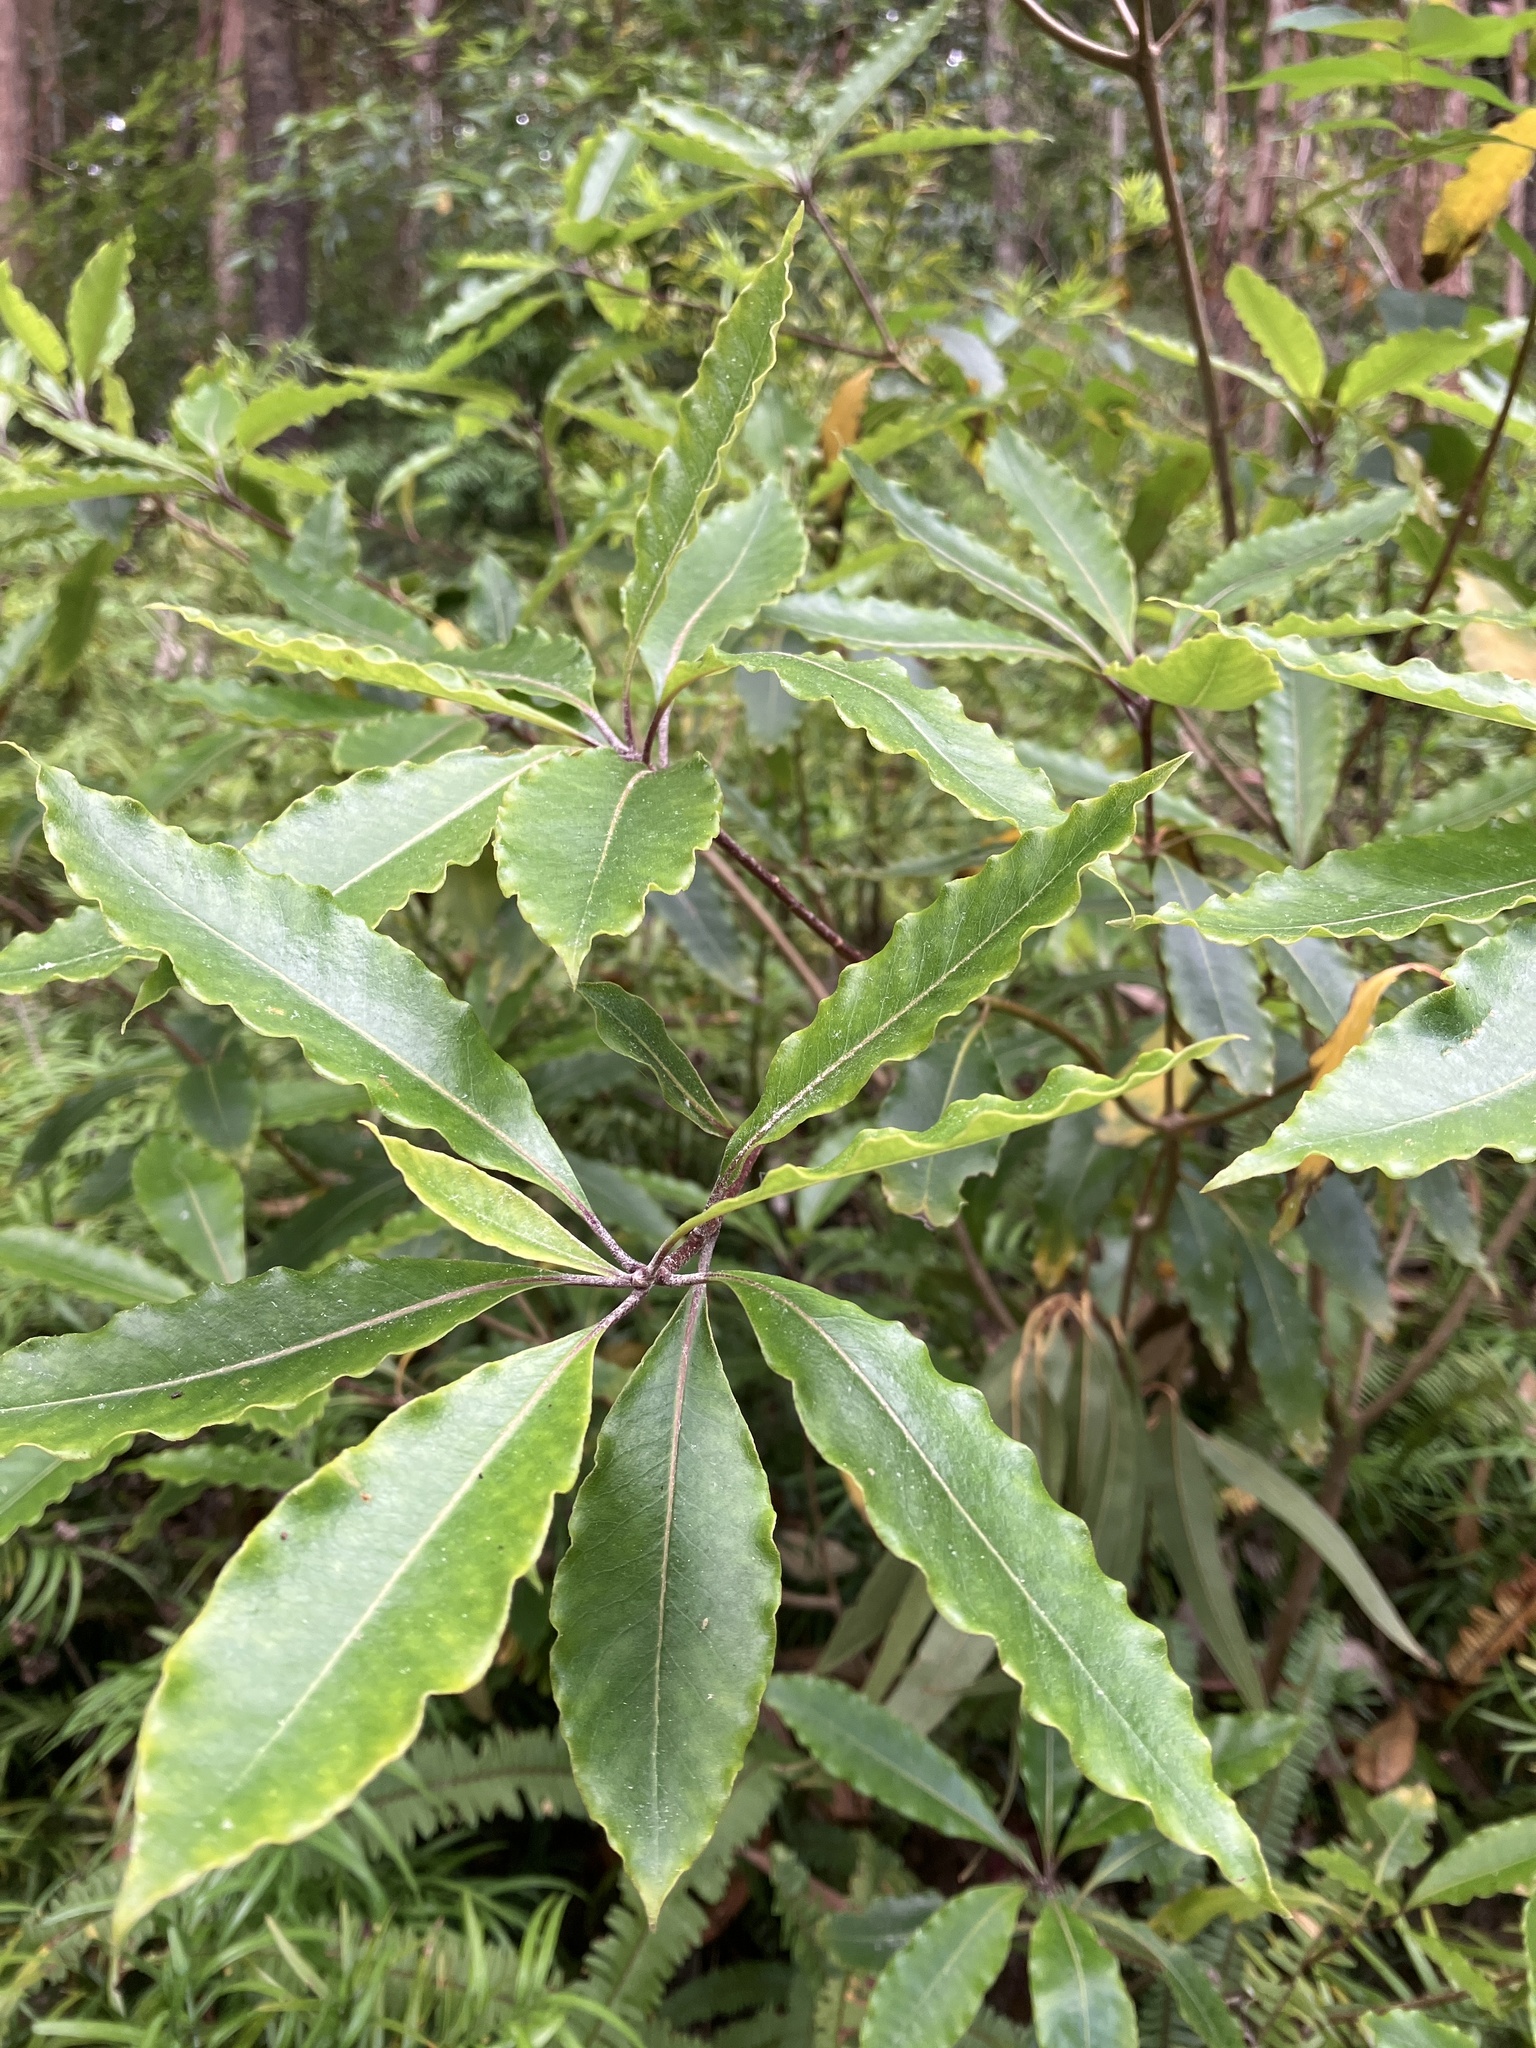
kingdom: Plantae
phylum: Tracheophyta
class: Magnoliopsida
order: Apiales
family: Pittosporaceae
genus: Pittosporum
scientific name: Pittosporum undulatum
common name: Australian cheesewood
